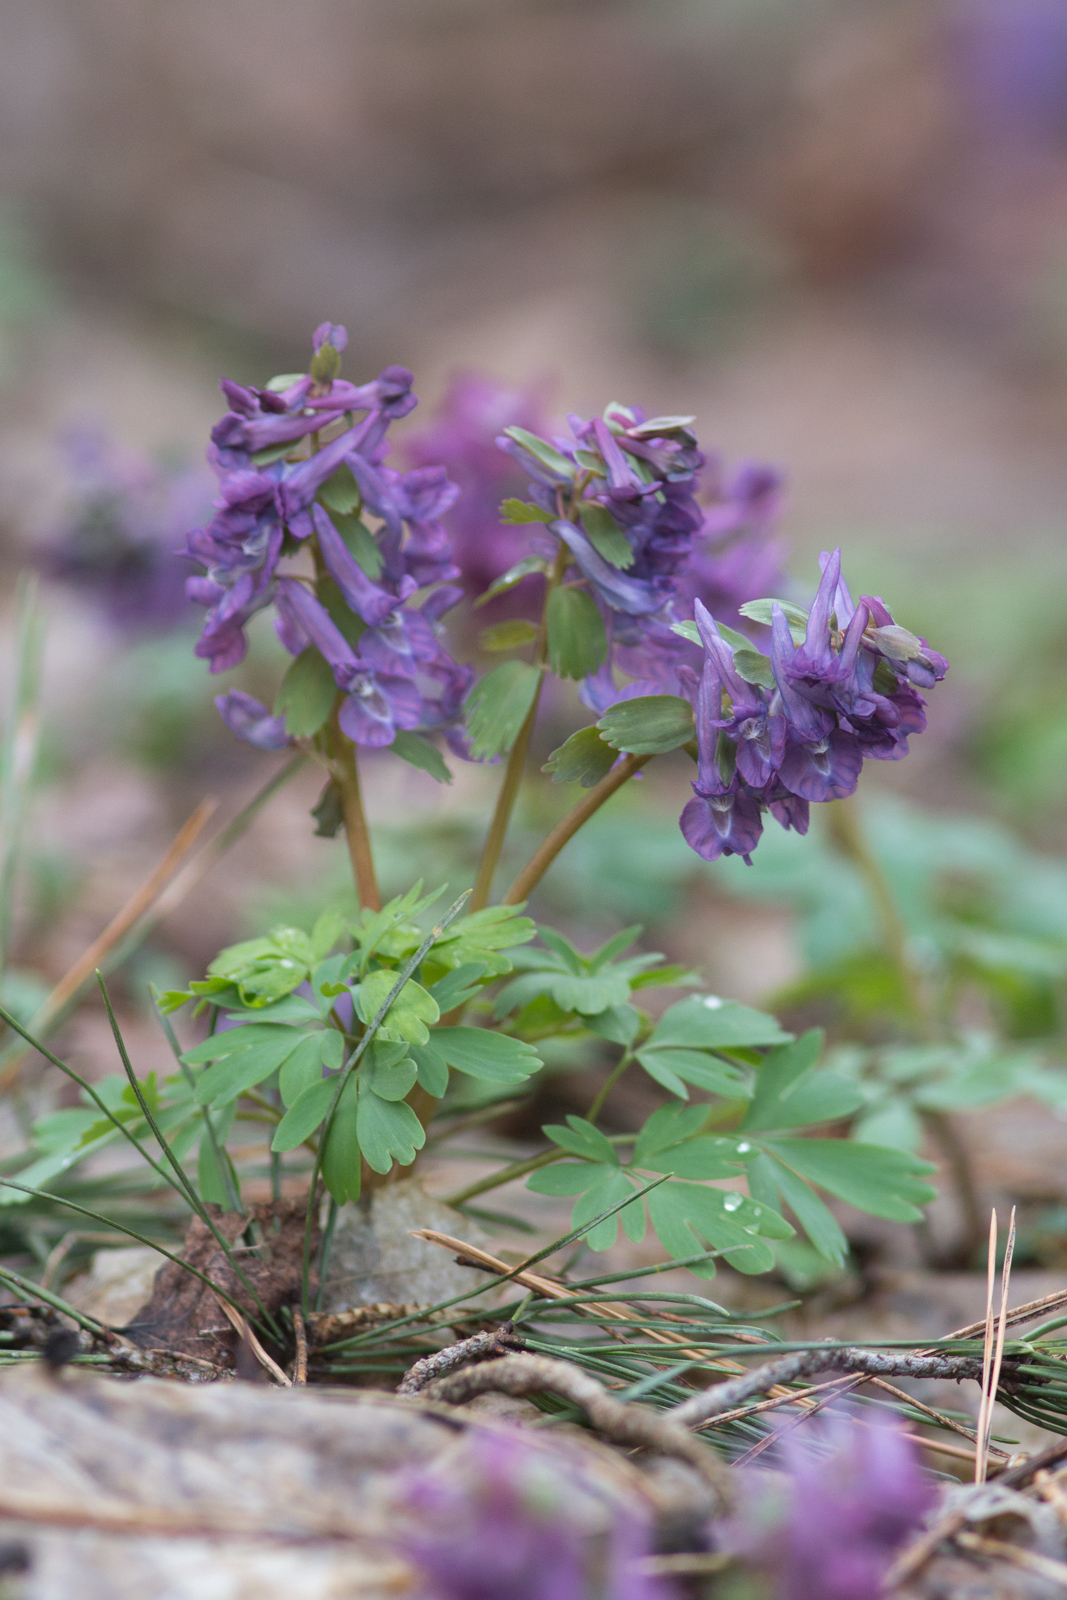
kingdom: Plantae
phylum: Tracheophyta
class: Magnoliopsida
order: Ranunculales
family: Papaveraceae
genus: Corydalis
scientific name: Corydalis solida
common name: Bird-in-a-bush
